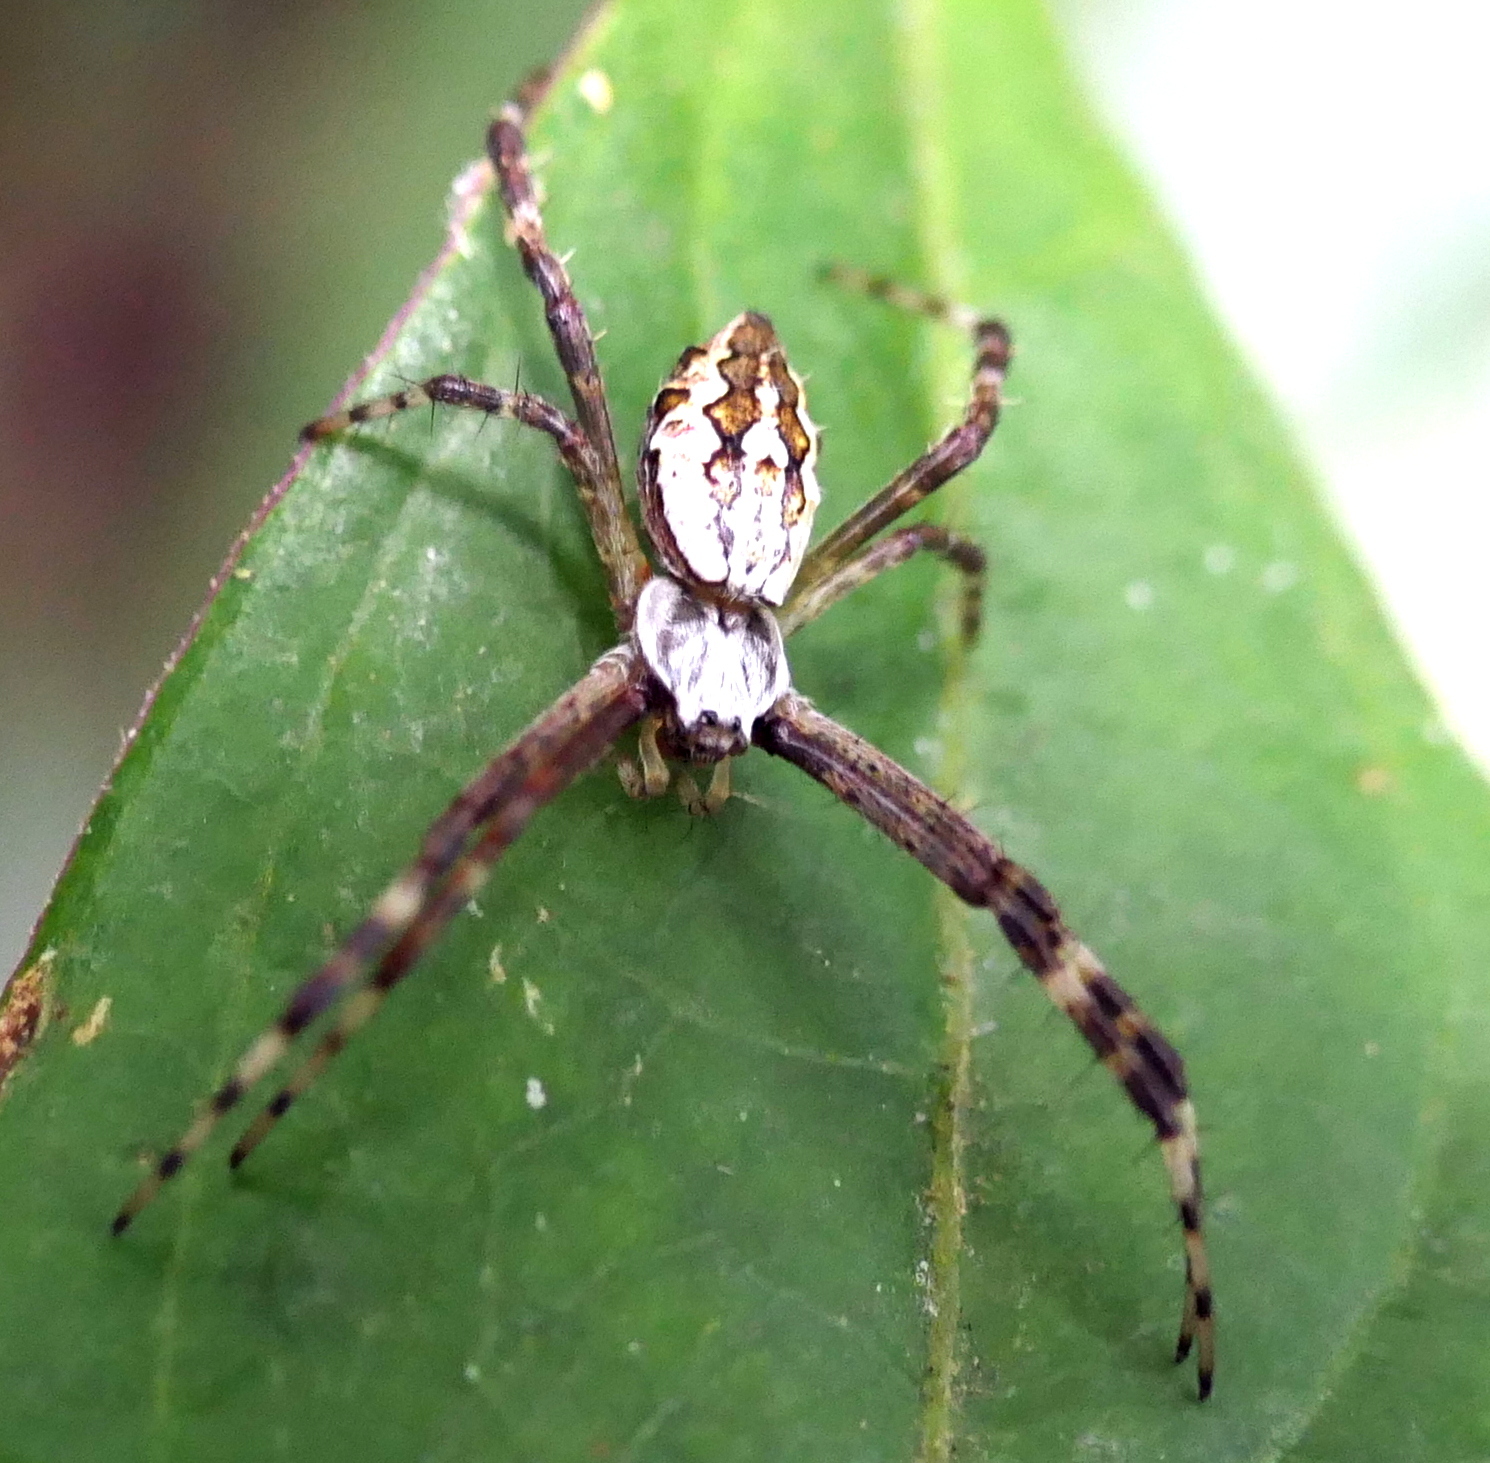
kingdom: Animalia
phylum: Arthropoda
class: Arachnida
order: Araneae
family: Araneidae
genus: Argiope
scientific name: Argiope argentata
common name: Orb weavers
